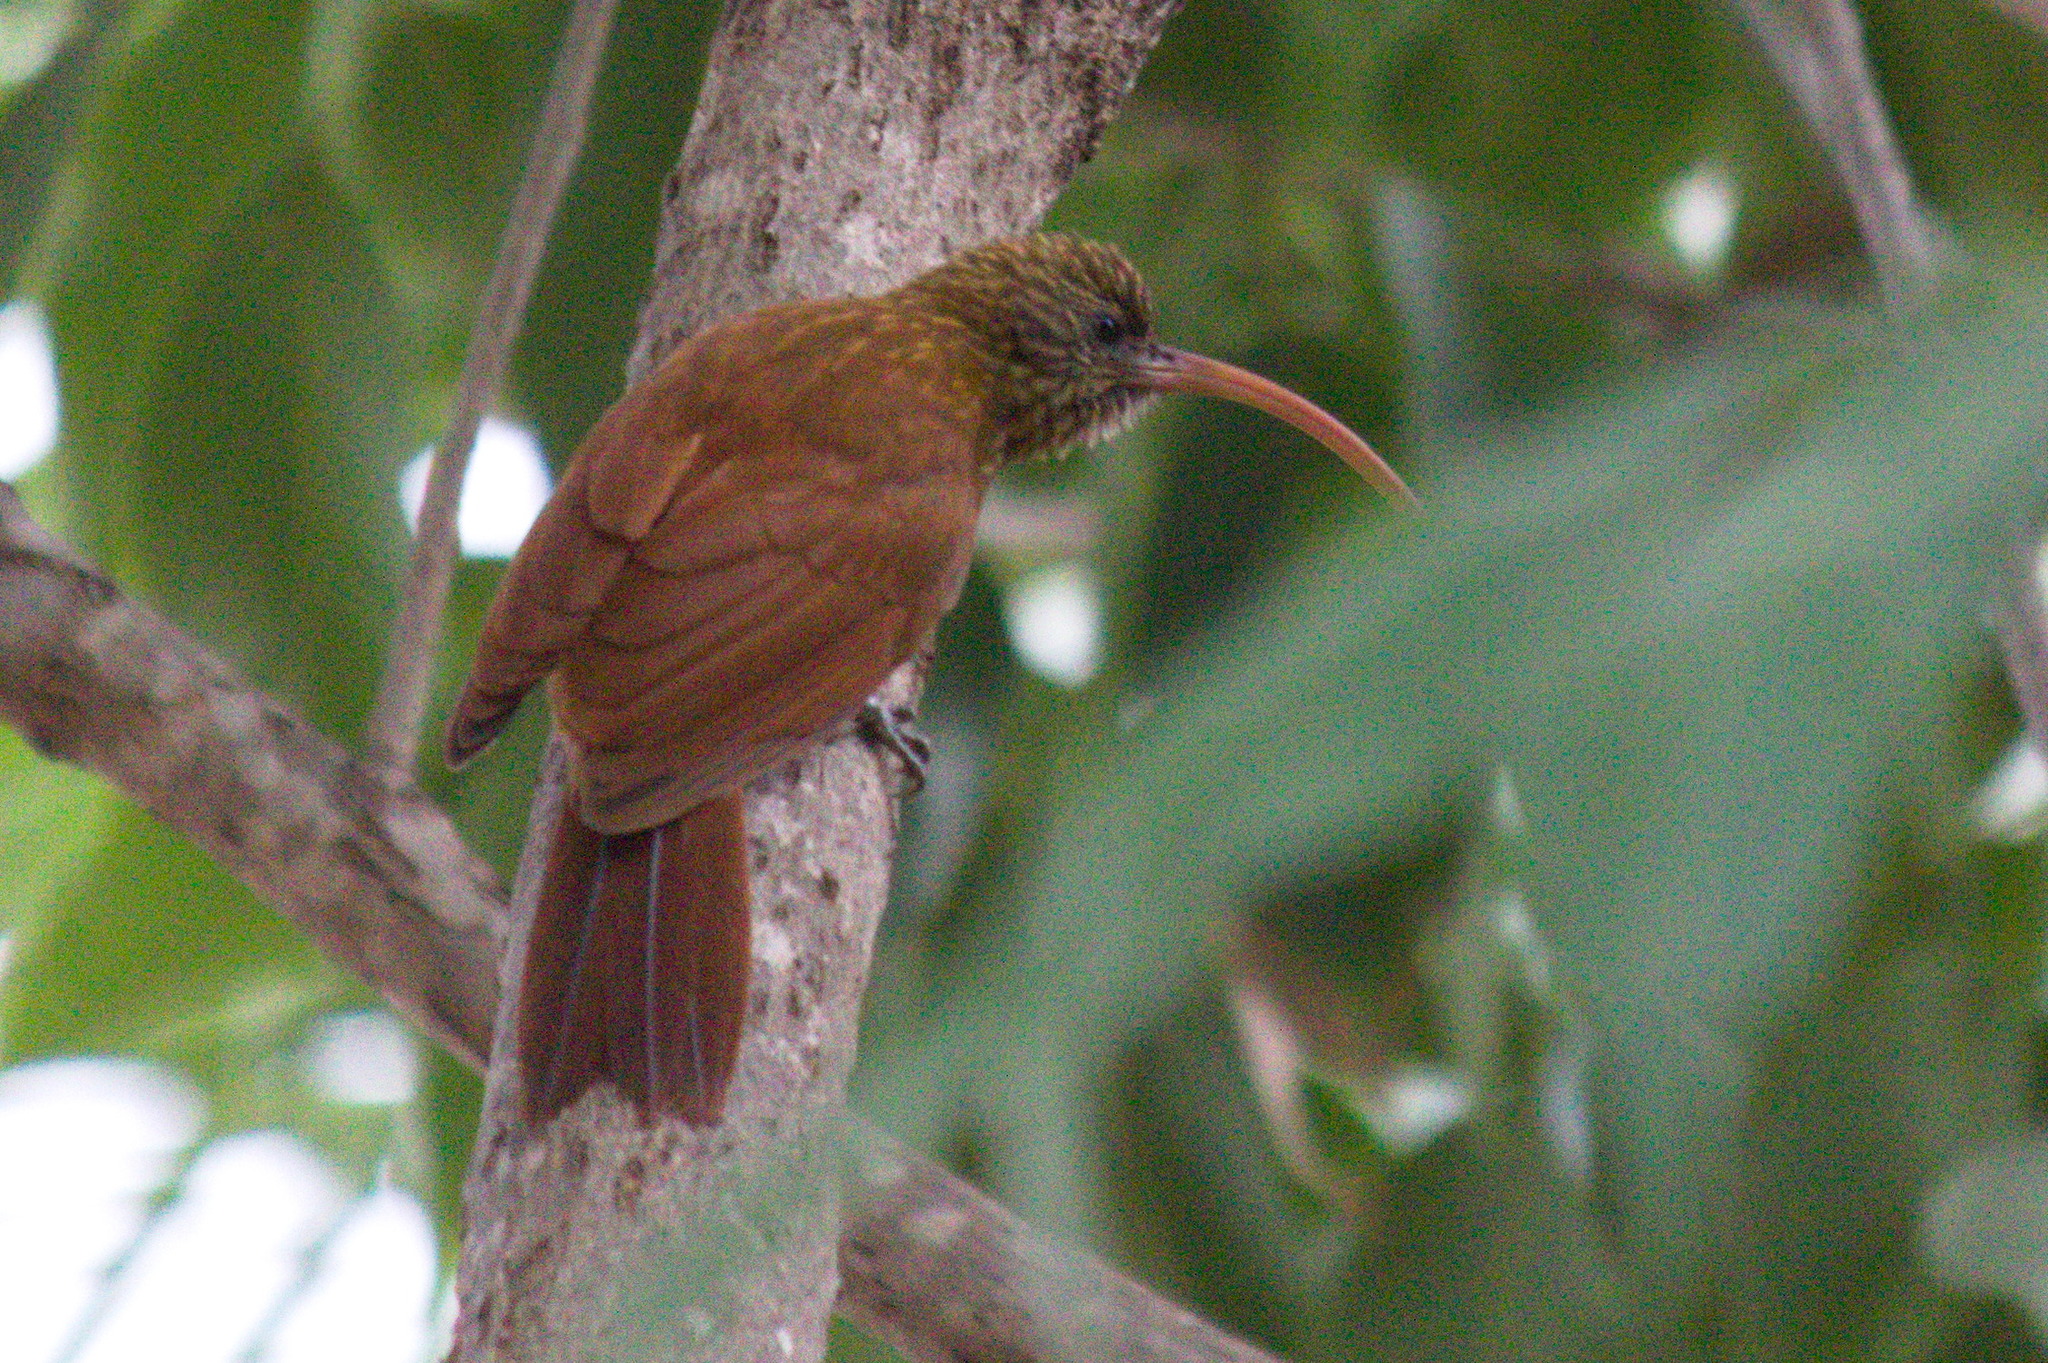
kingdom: Animalia
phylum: Chordata
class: Aves
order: Passeriformes
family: Furnariidae
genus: Campylorhamphus
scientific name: Campylorhamphus trochilirostris
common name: Red-billed scythebill
